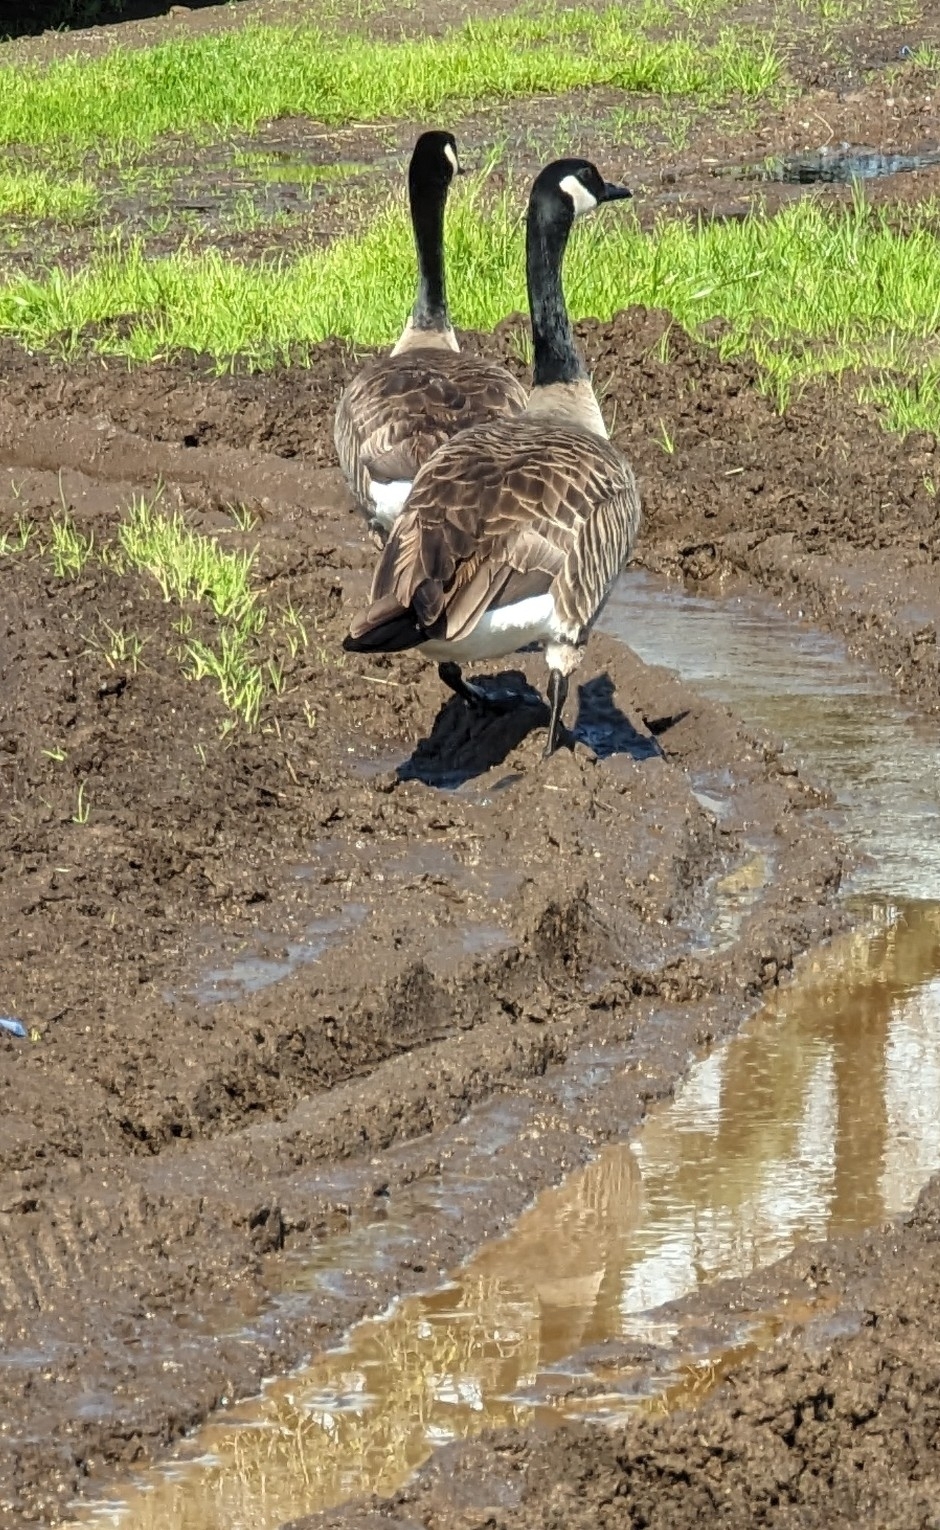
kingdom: Animalia
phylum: Chordata
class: Aves
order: Anseriformes
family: Anatidae
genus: Branta
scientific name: Branta canadensis
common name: Canada goose
